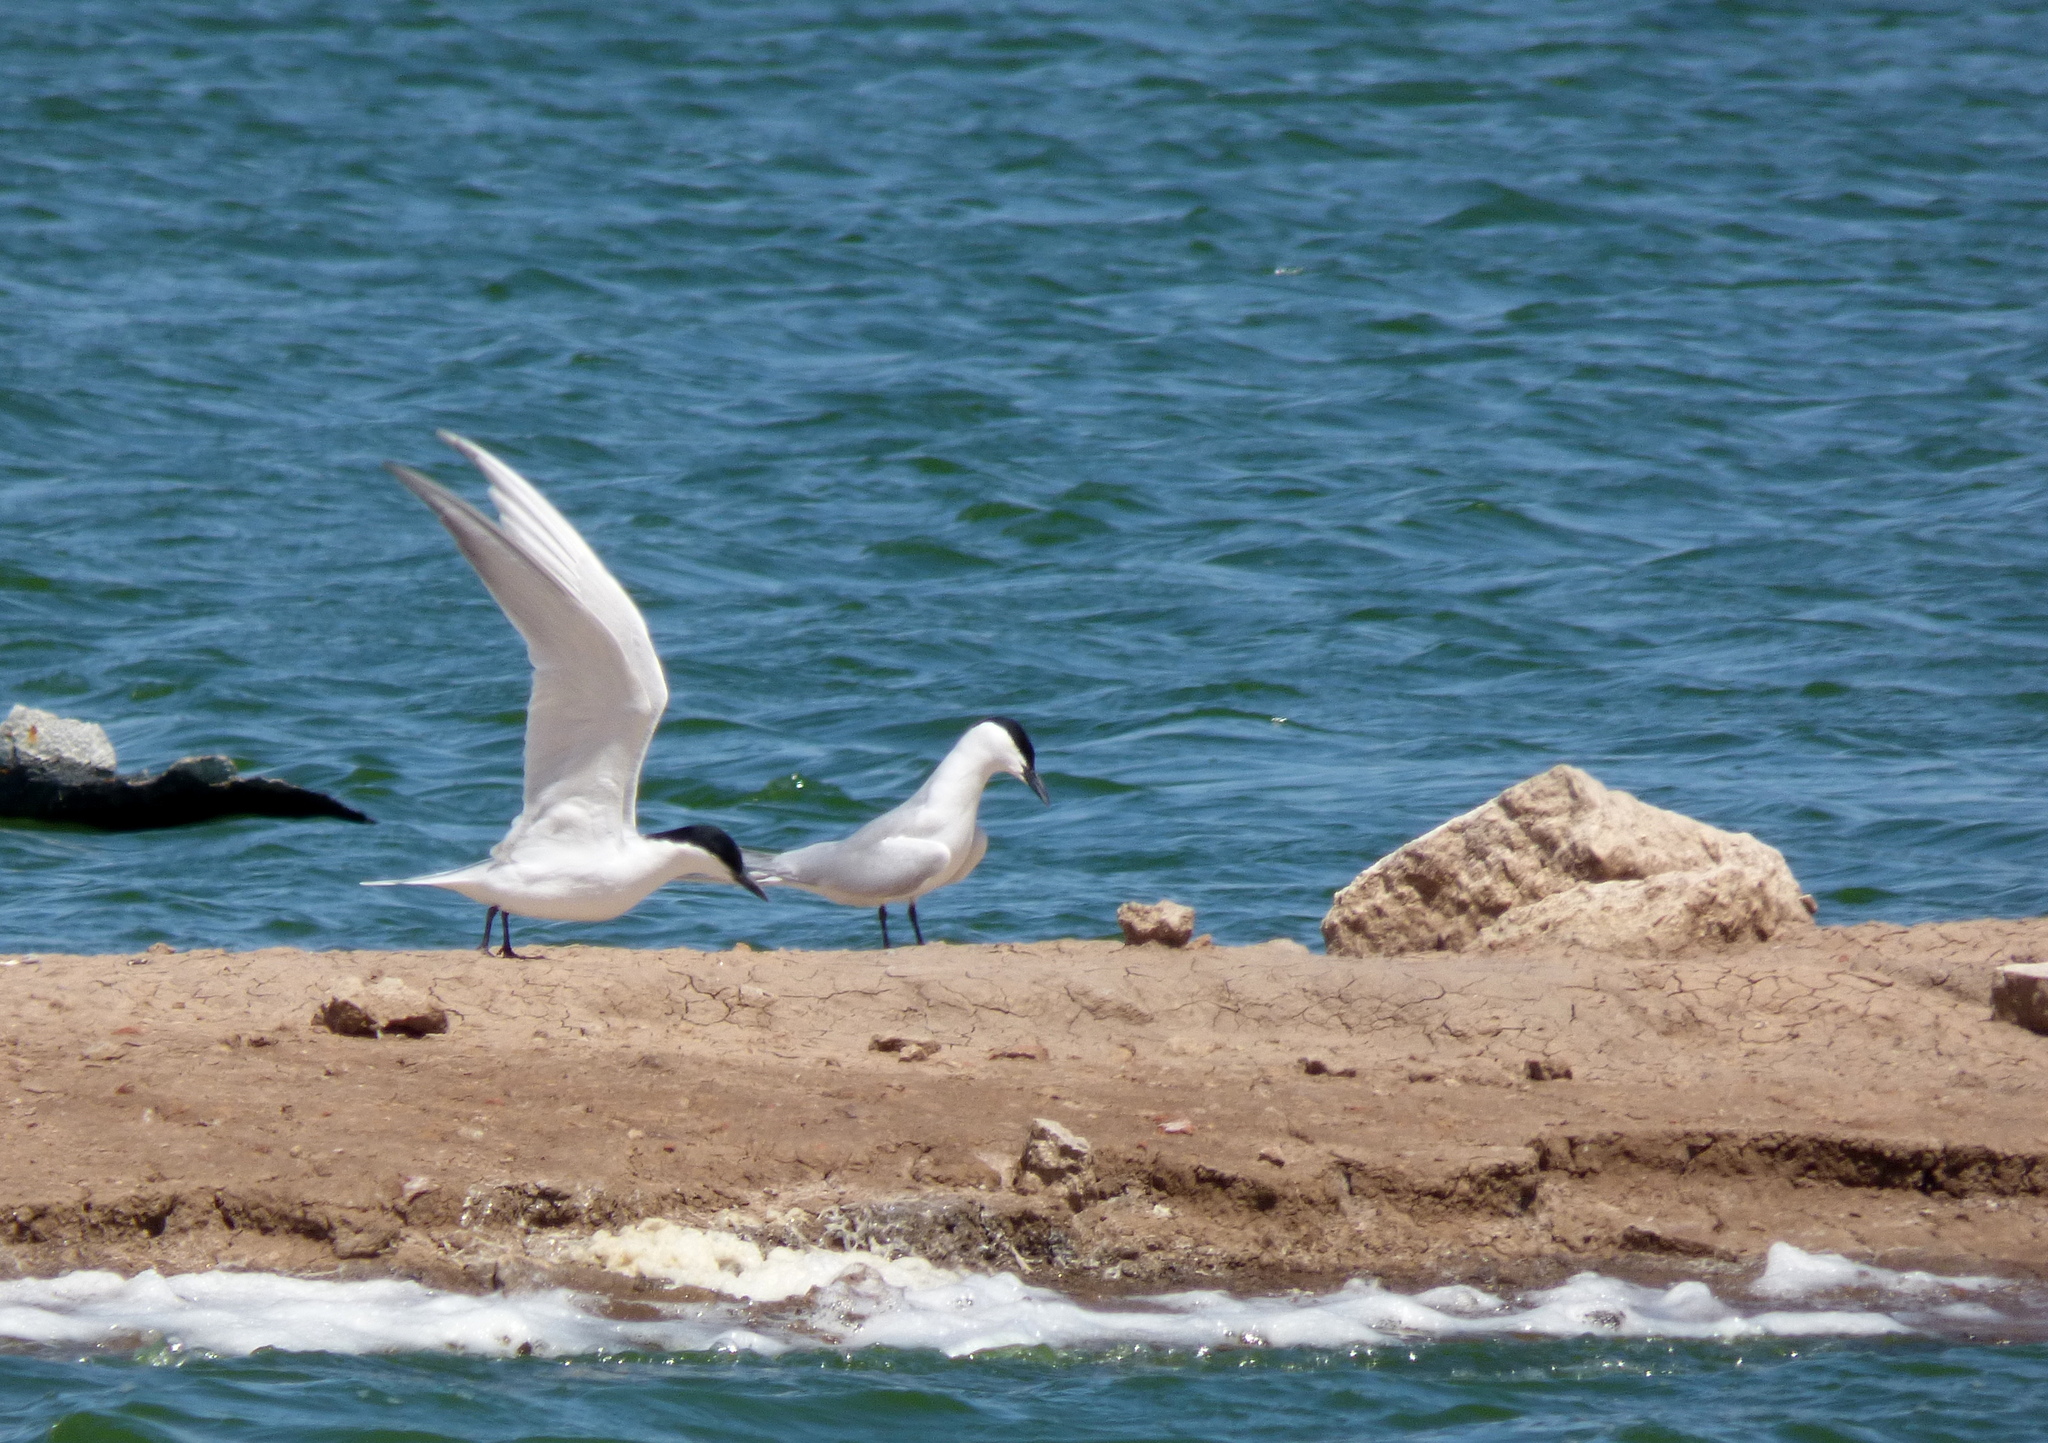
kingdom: Animalia
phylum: Chordata
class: Aves
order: Charadriiformes
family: Laridae
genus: Gelochelidon
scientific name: Gelochelidon nilotica
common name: Gull-billed tern
